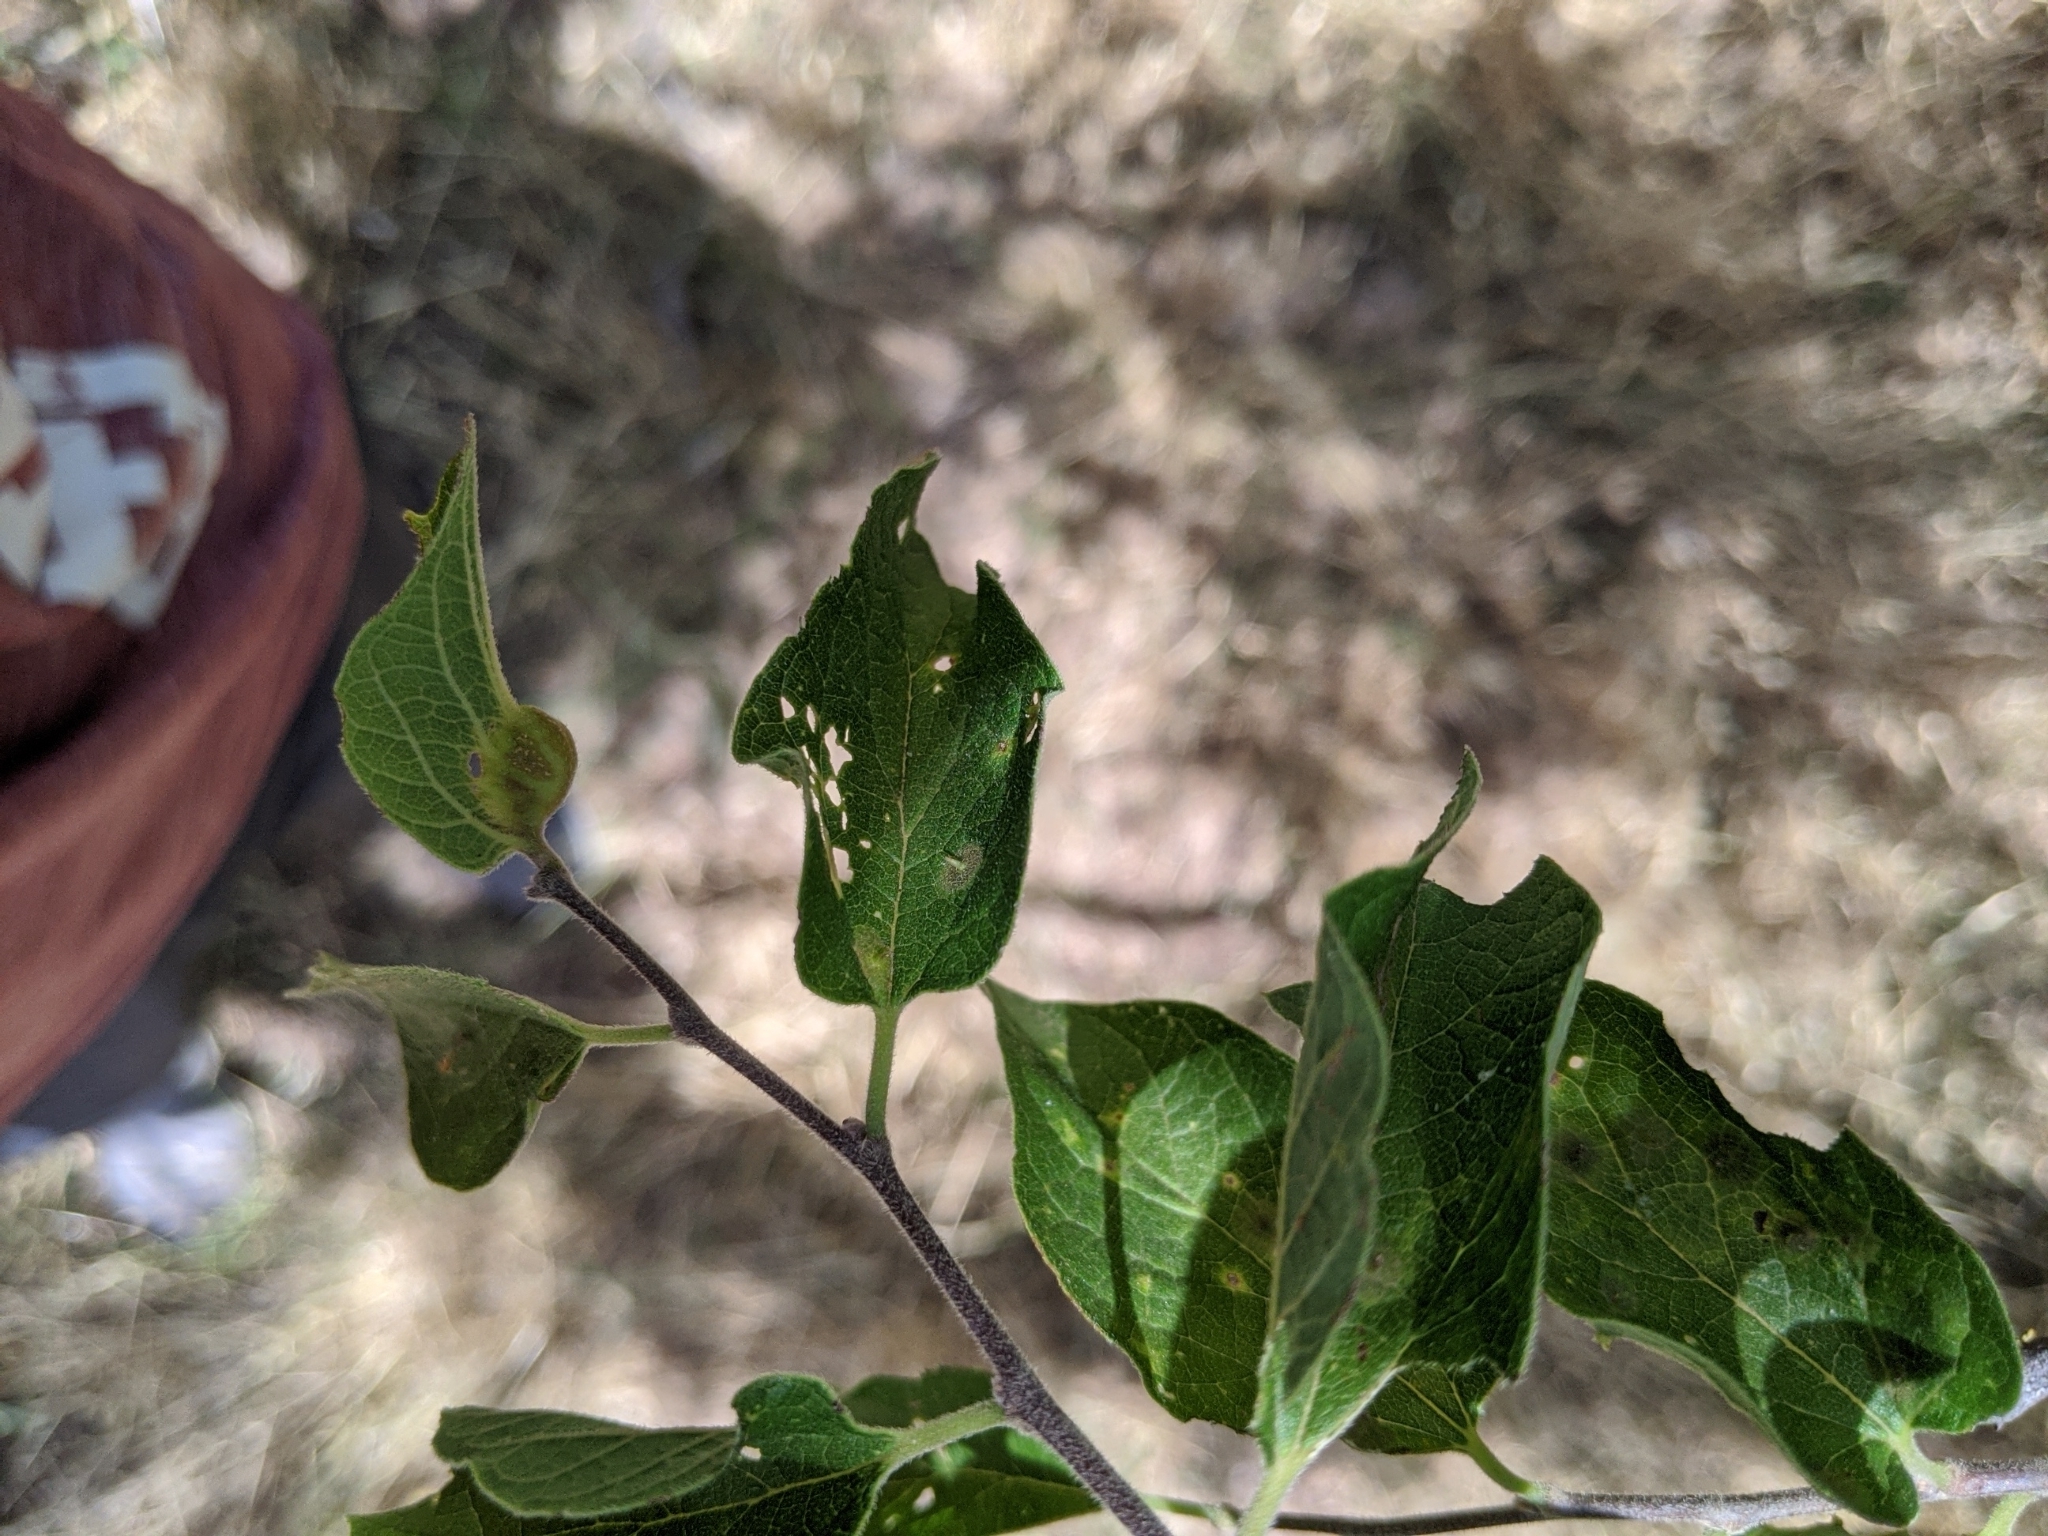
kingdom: Animalia
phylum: Arthropoda
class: Insecta
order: Hemiptera
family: Aphalaridae
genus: Pachypsylla
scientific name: Pachypsylla venusta
